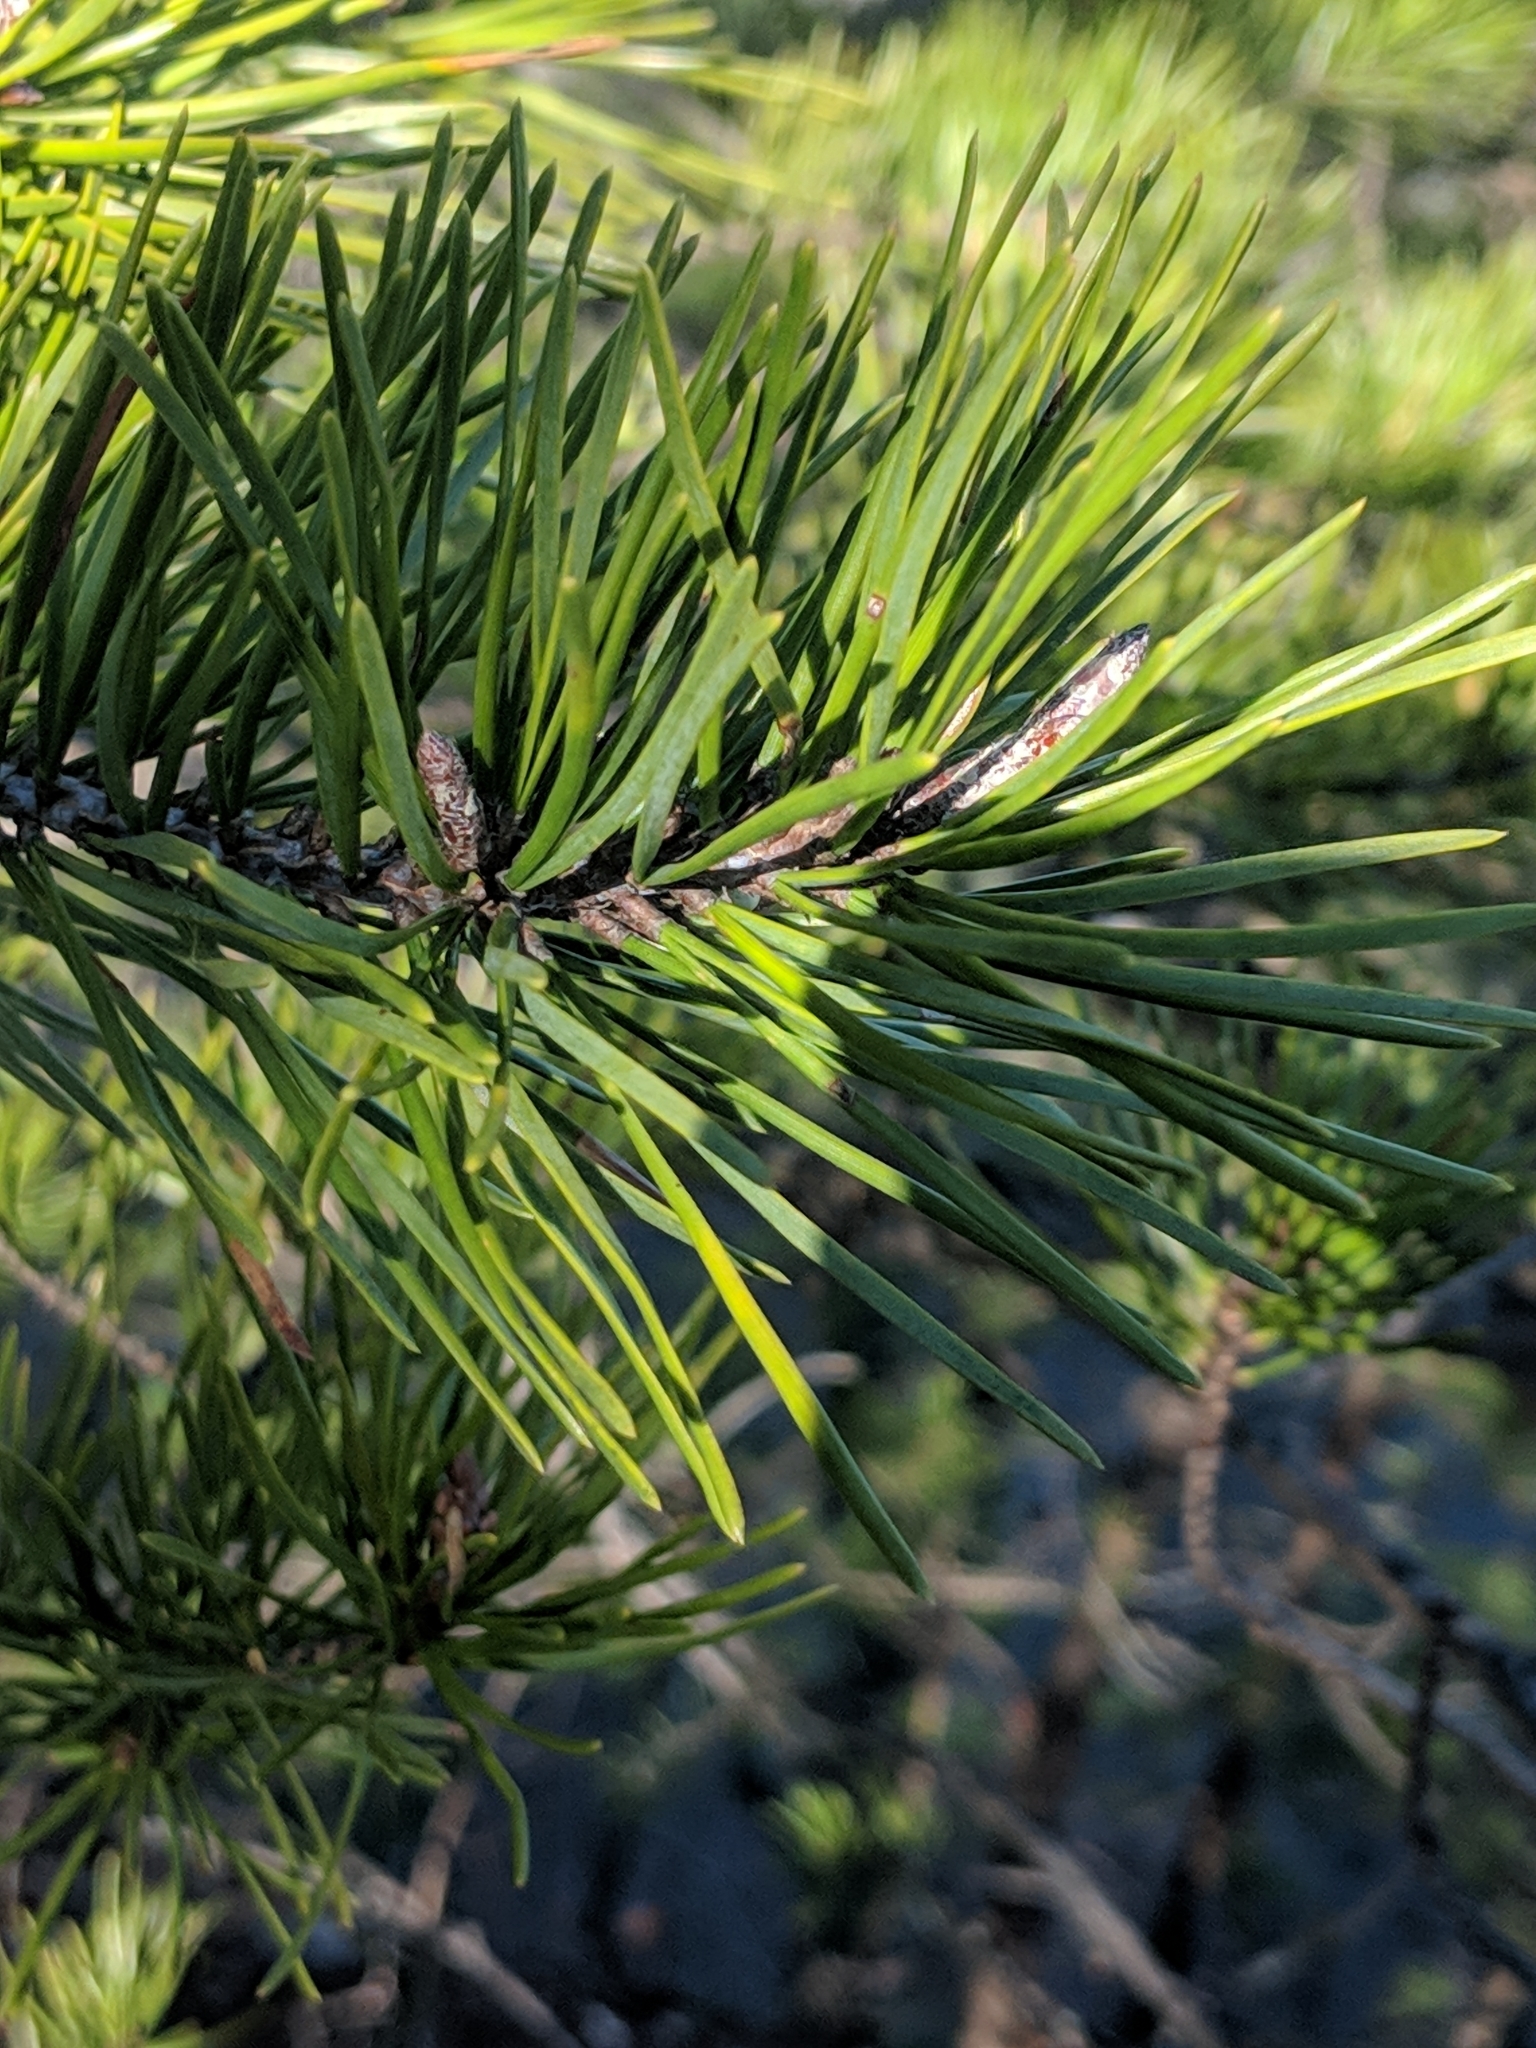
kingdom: Plantae
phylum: Tracheophyta
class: Pinopsida
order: Pinales
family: Pinaceae
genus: Pinus
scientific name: Pinus virginiana
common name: Scrub pine
